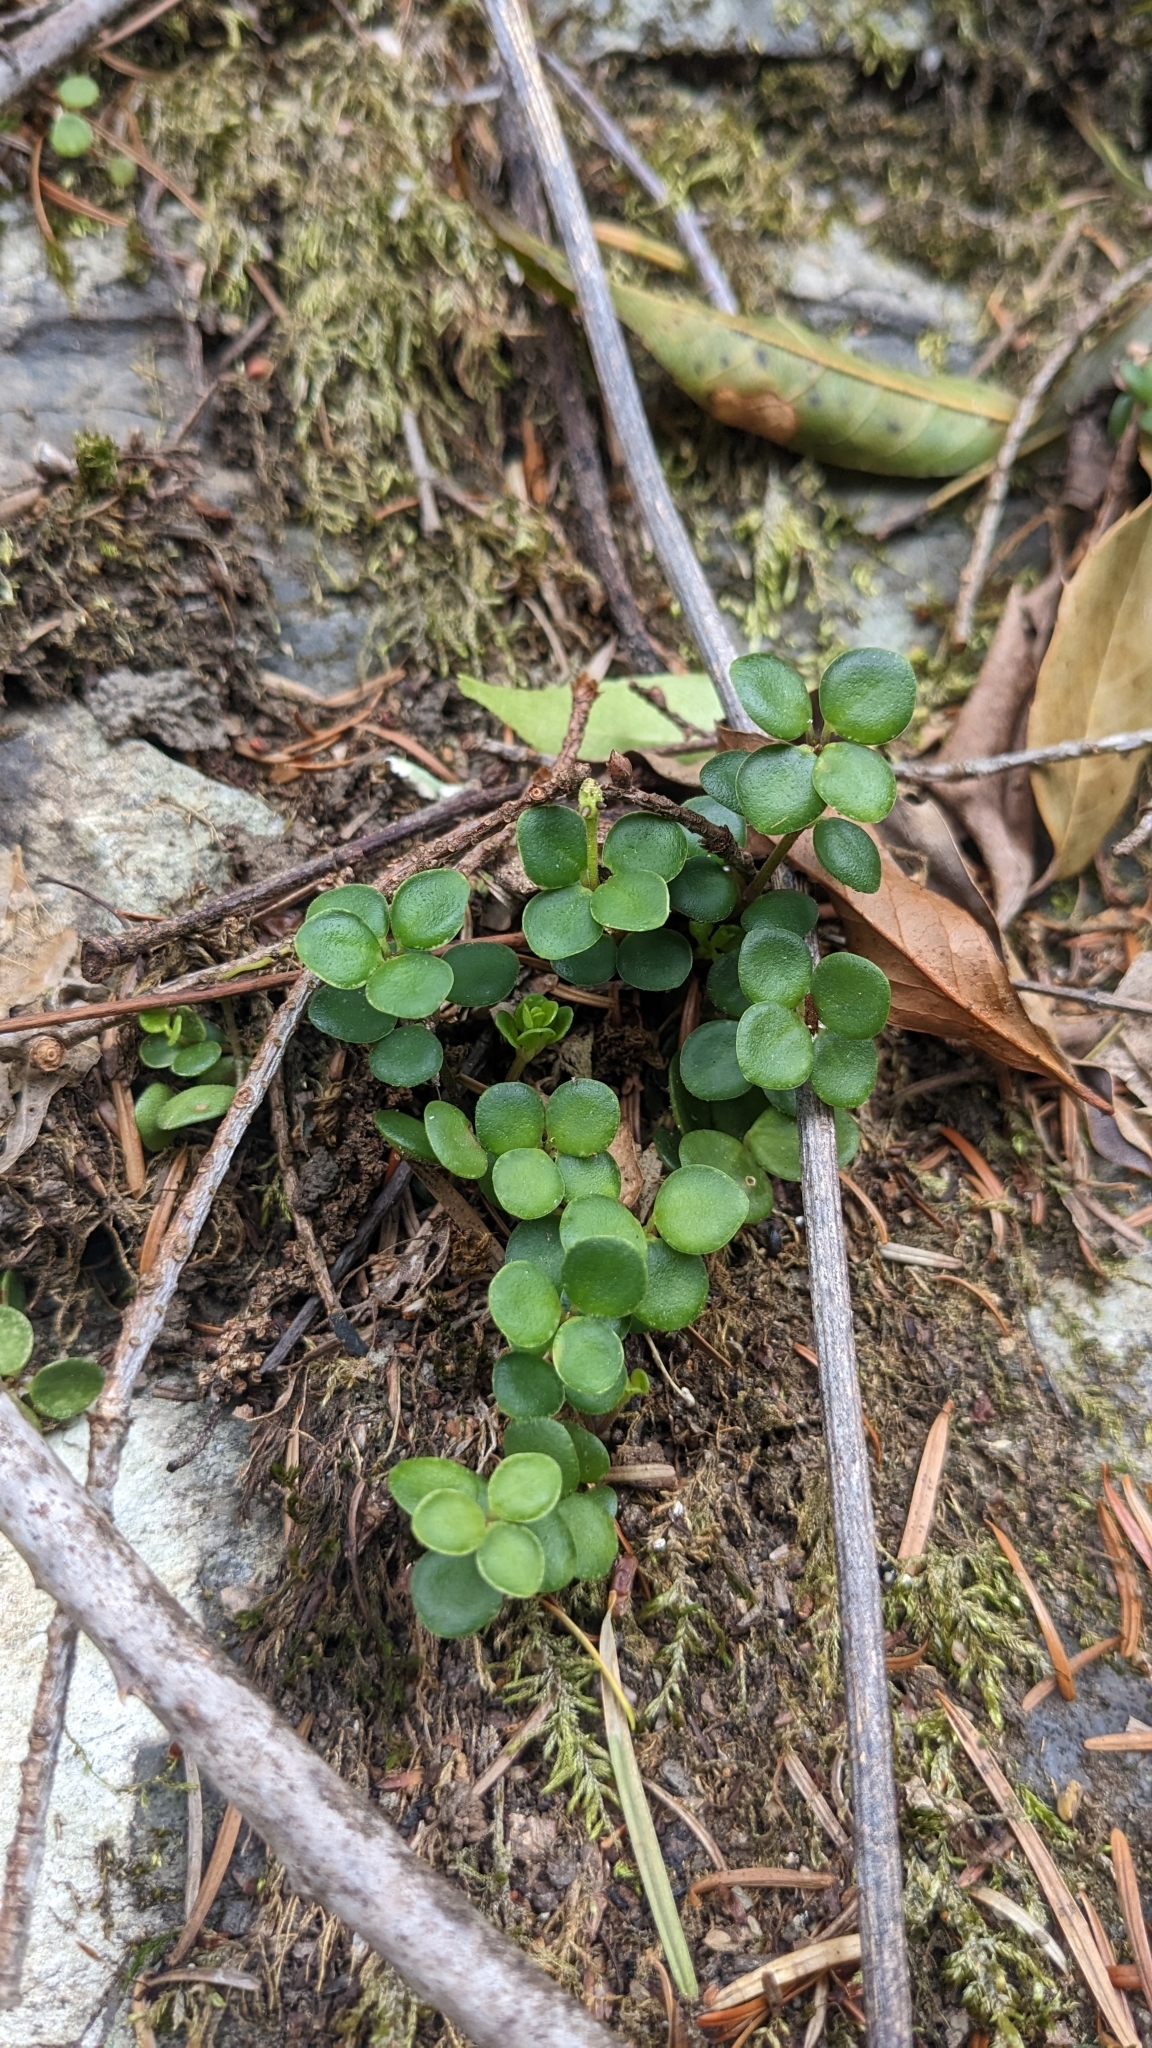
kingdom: Plantae
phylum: Tracheophyta
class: Magnoliopsida
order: Piperales
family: Piperaceae
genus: Peperomia
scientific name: Peperomia tetraphylla
